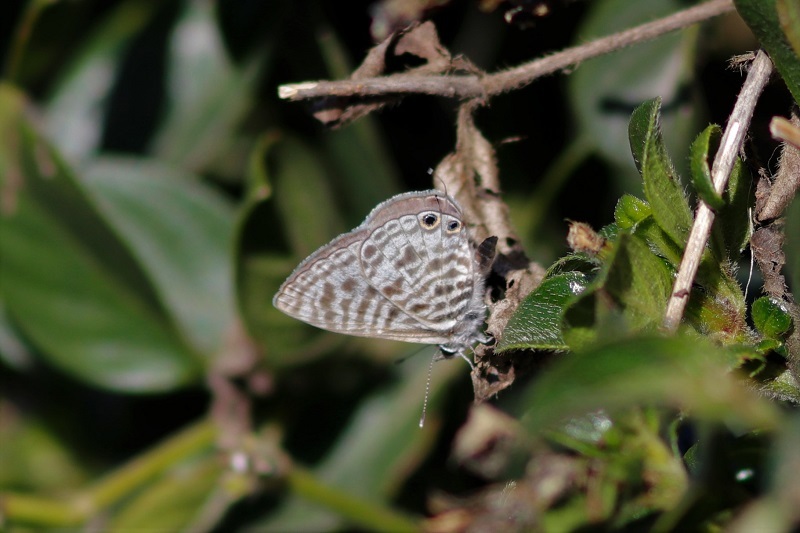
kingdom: Animalia
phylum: Arthropoda
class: Insecta
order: Lepidoptera
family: Lycaenidae
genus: Leptotes
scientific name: Leptotes
